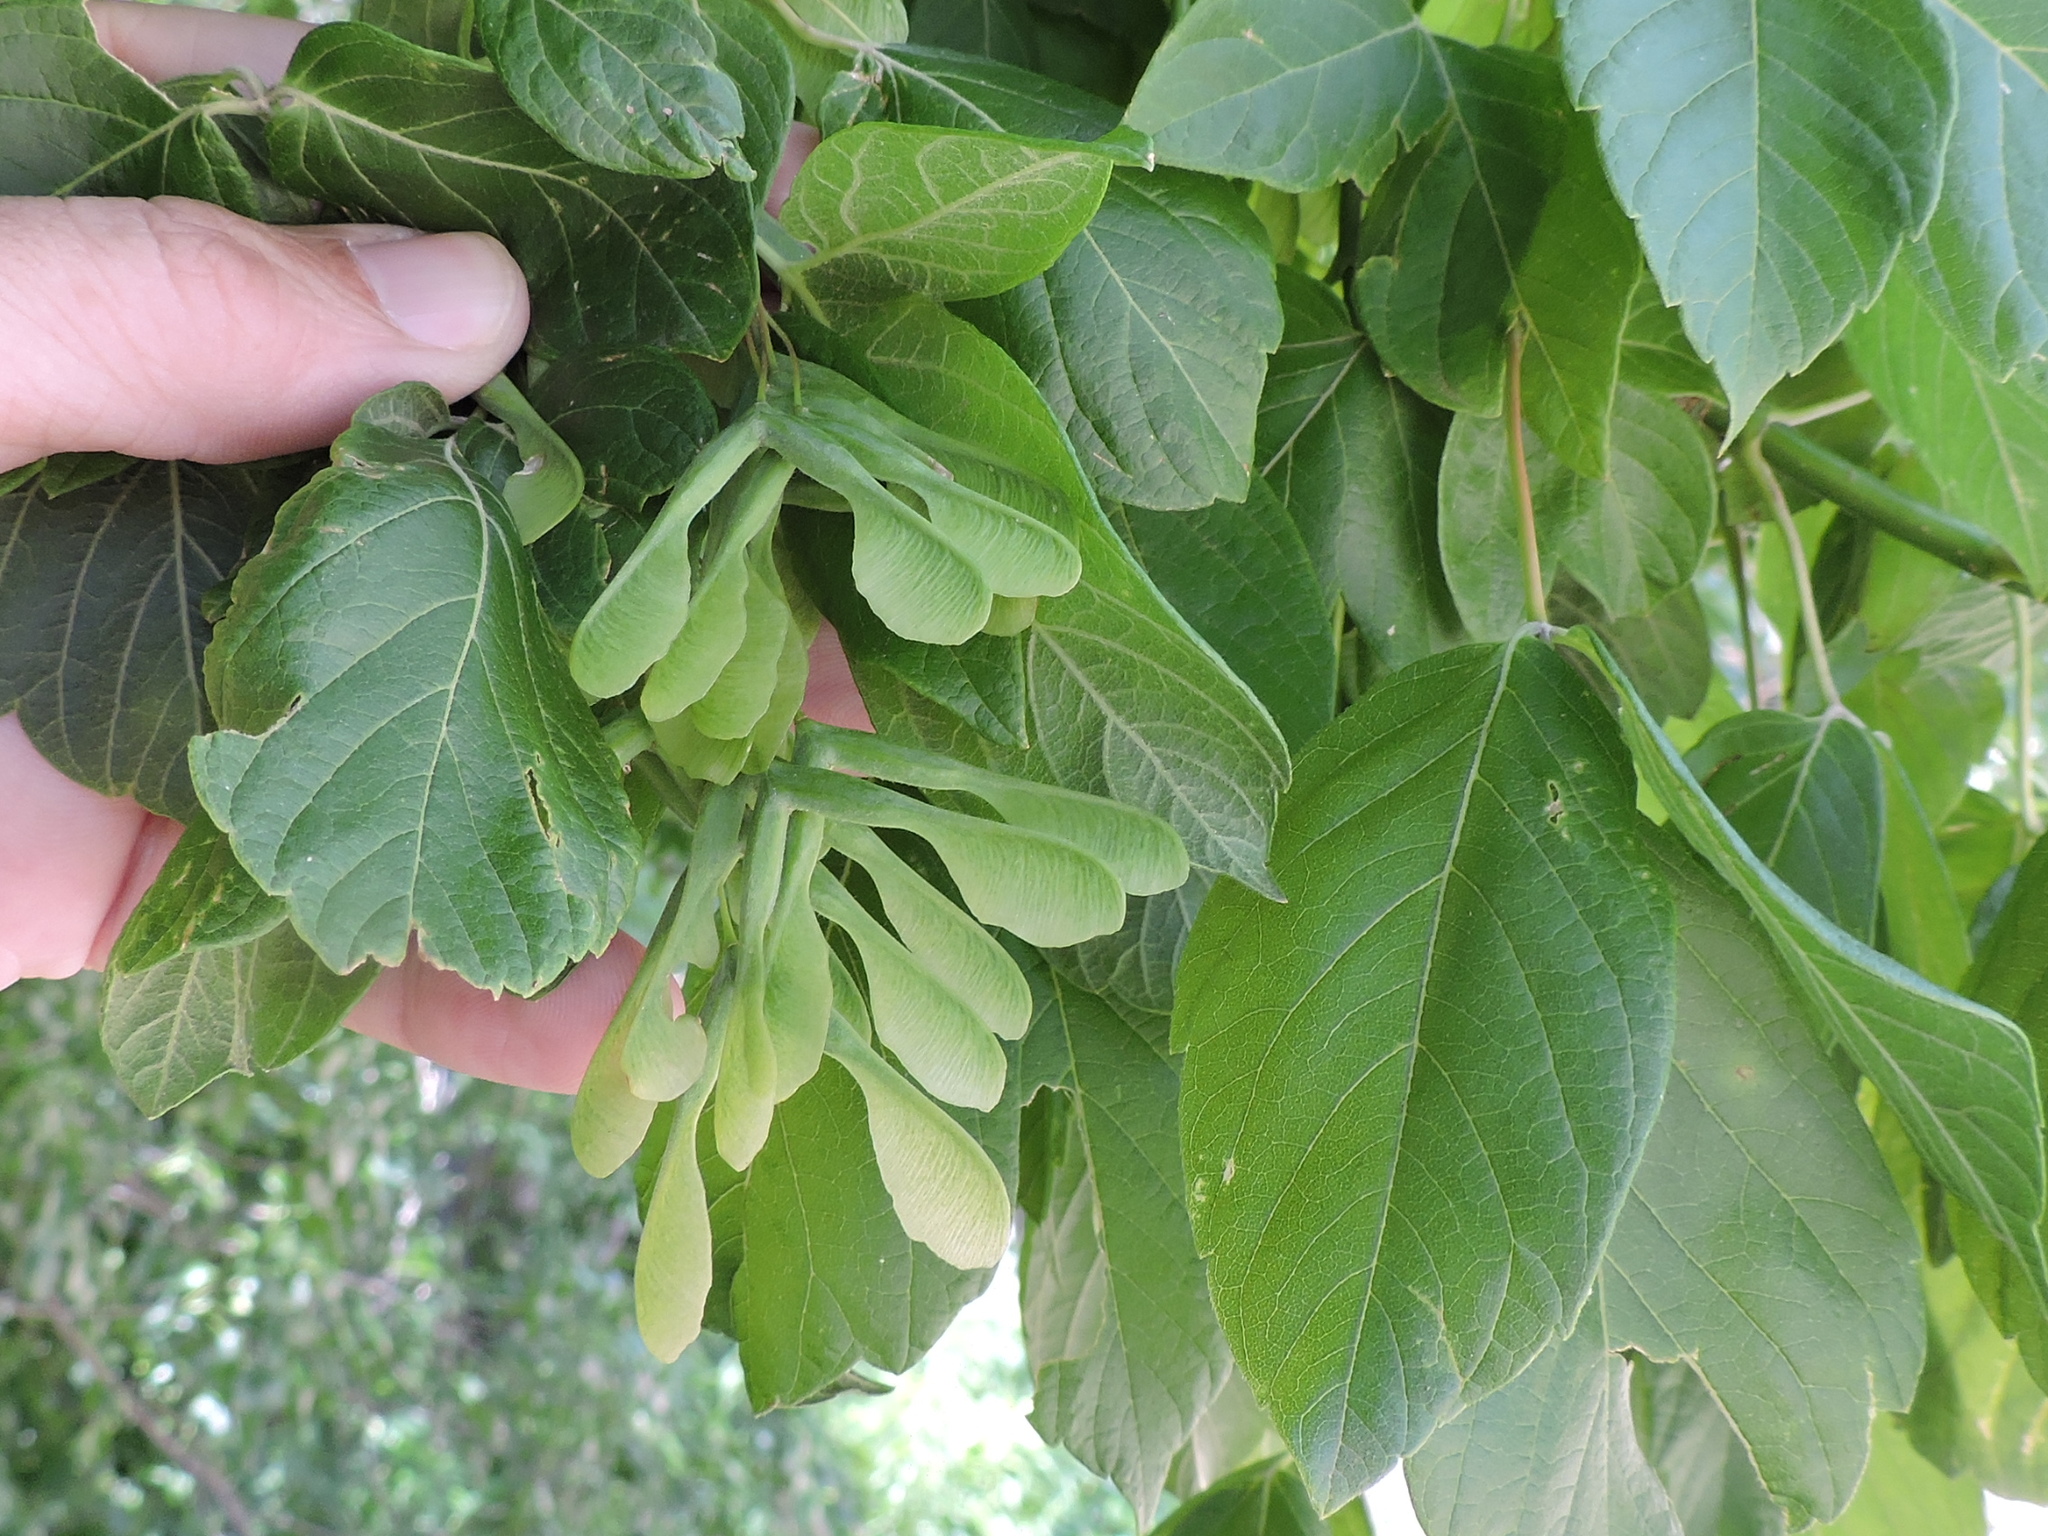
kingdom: Plantae
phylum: Tracheophyta
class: Magnoliopsida
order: Sapindales
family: Sapindaceae
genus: Acer
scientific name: Acer negundo
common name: Ashleaf maple
